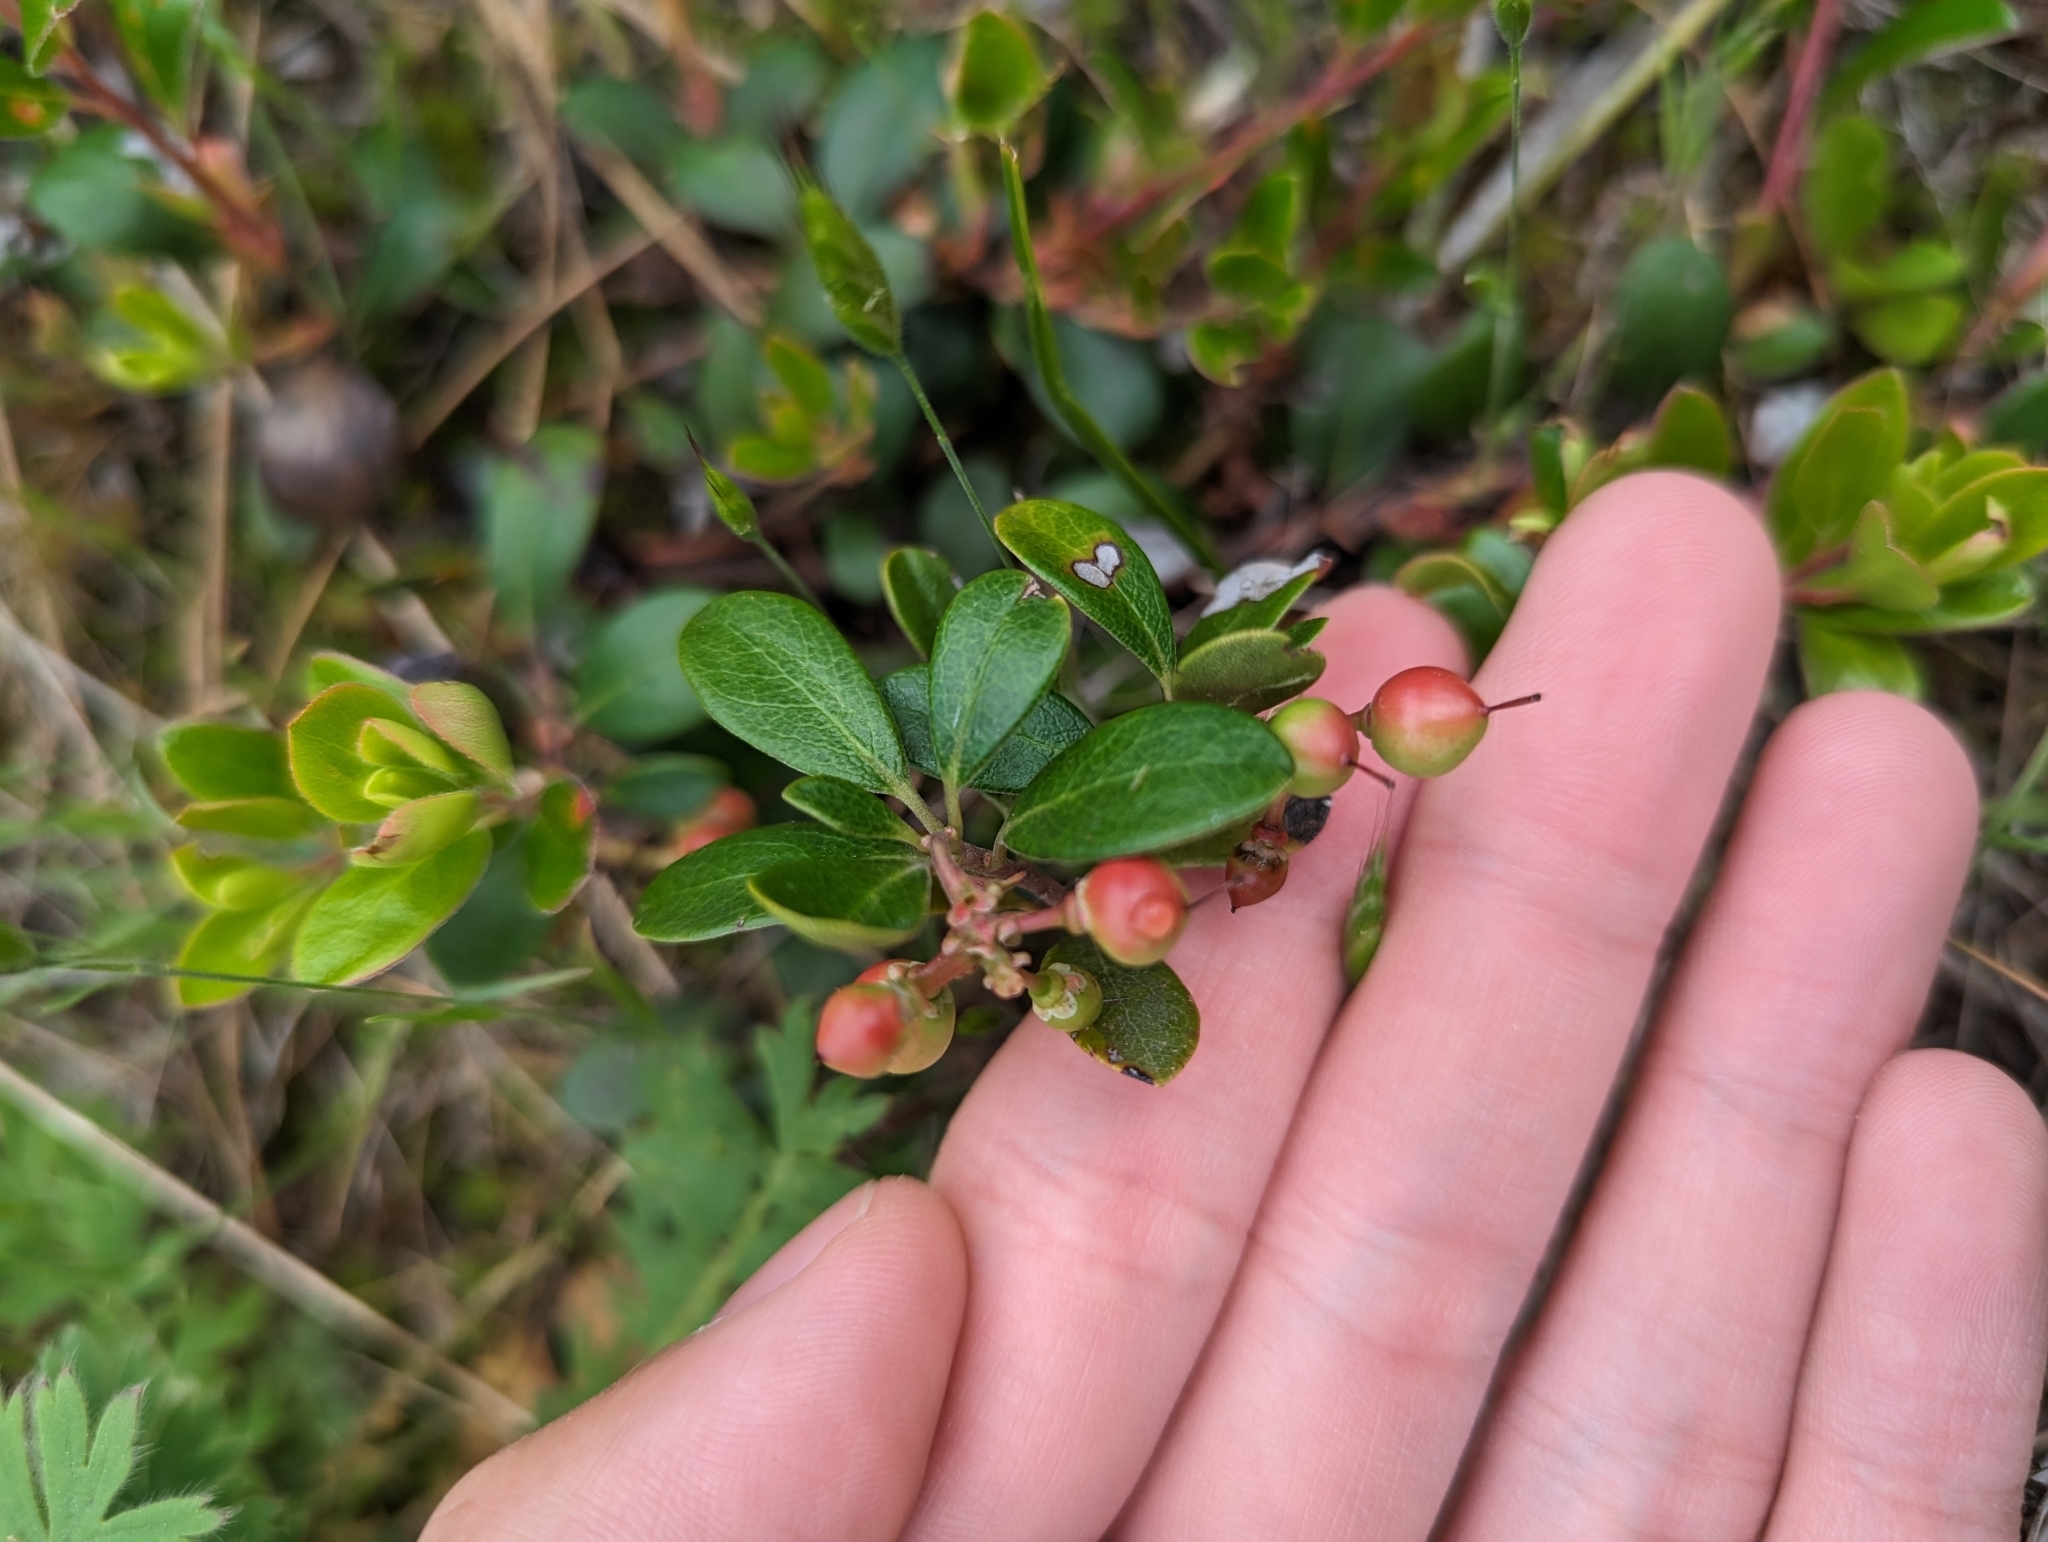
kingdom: Plantae
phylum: Tracheophyta
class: Magnoliopsida
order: Ericales
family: Ericaceae
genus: Arctostaphylos
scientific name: Arctostaphylos uva-ursi
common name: Bearberry
